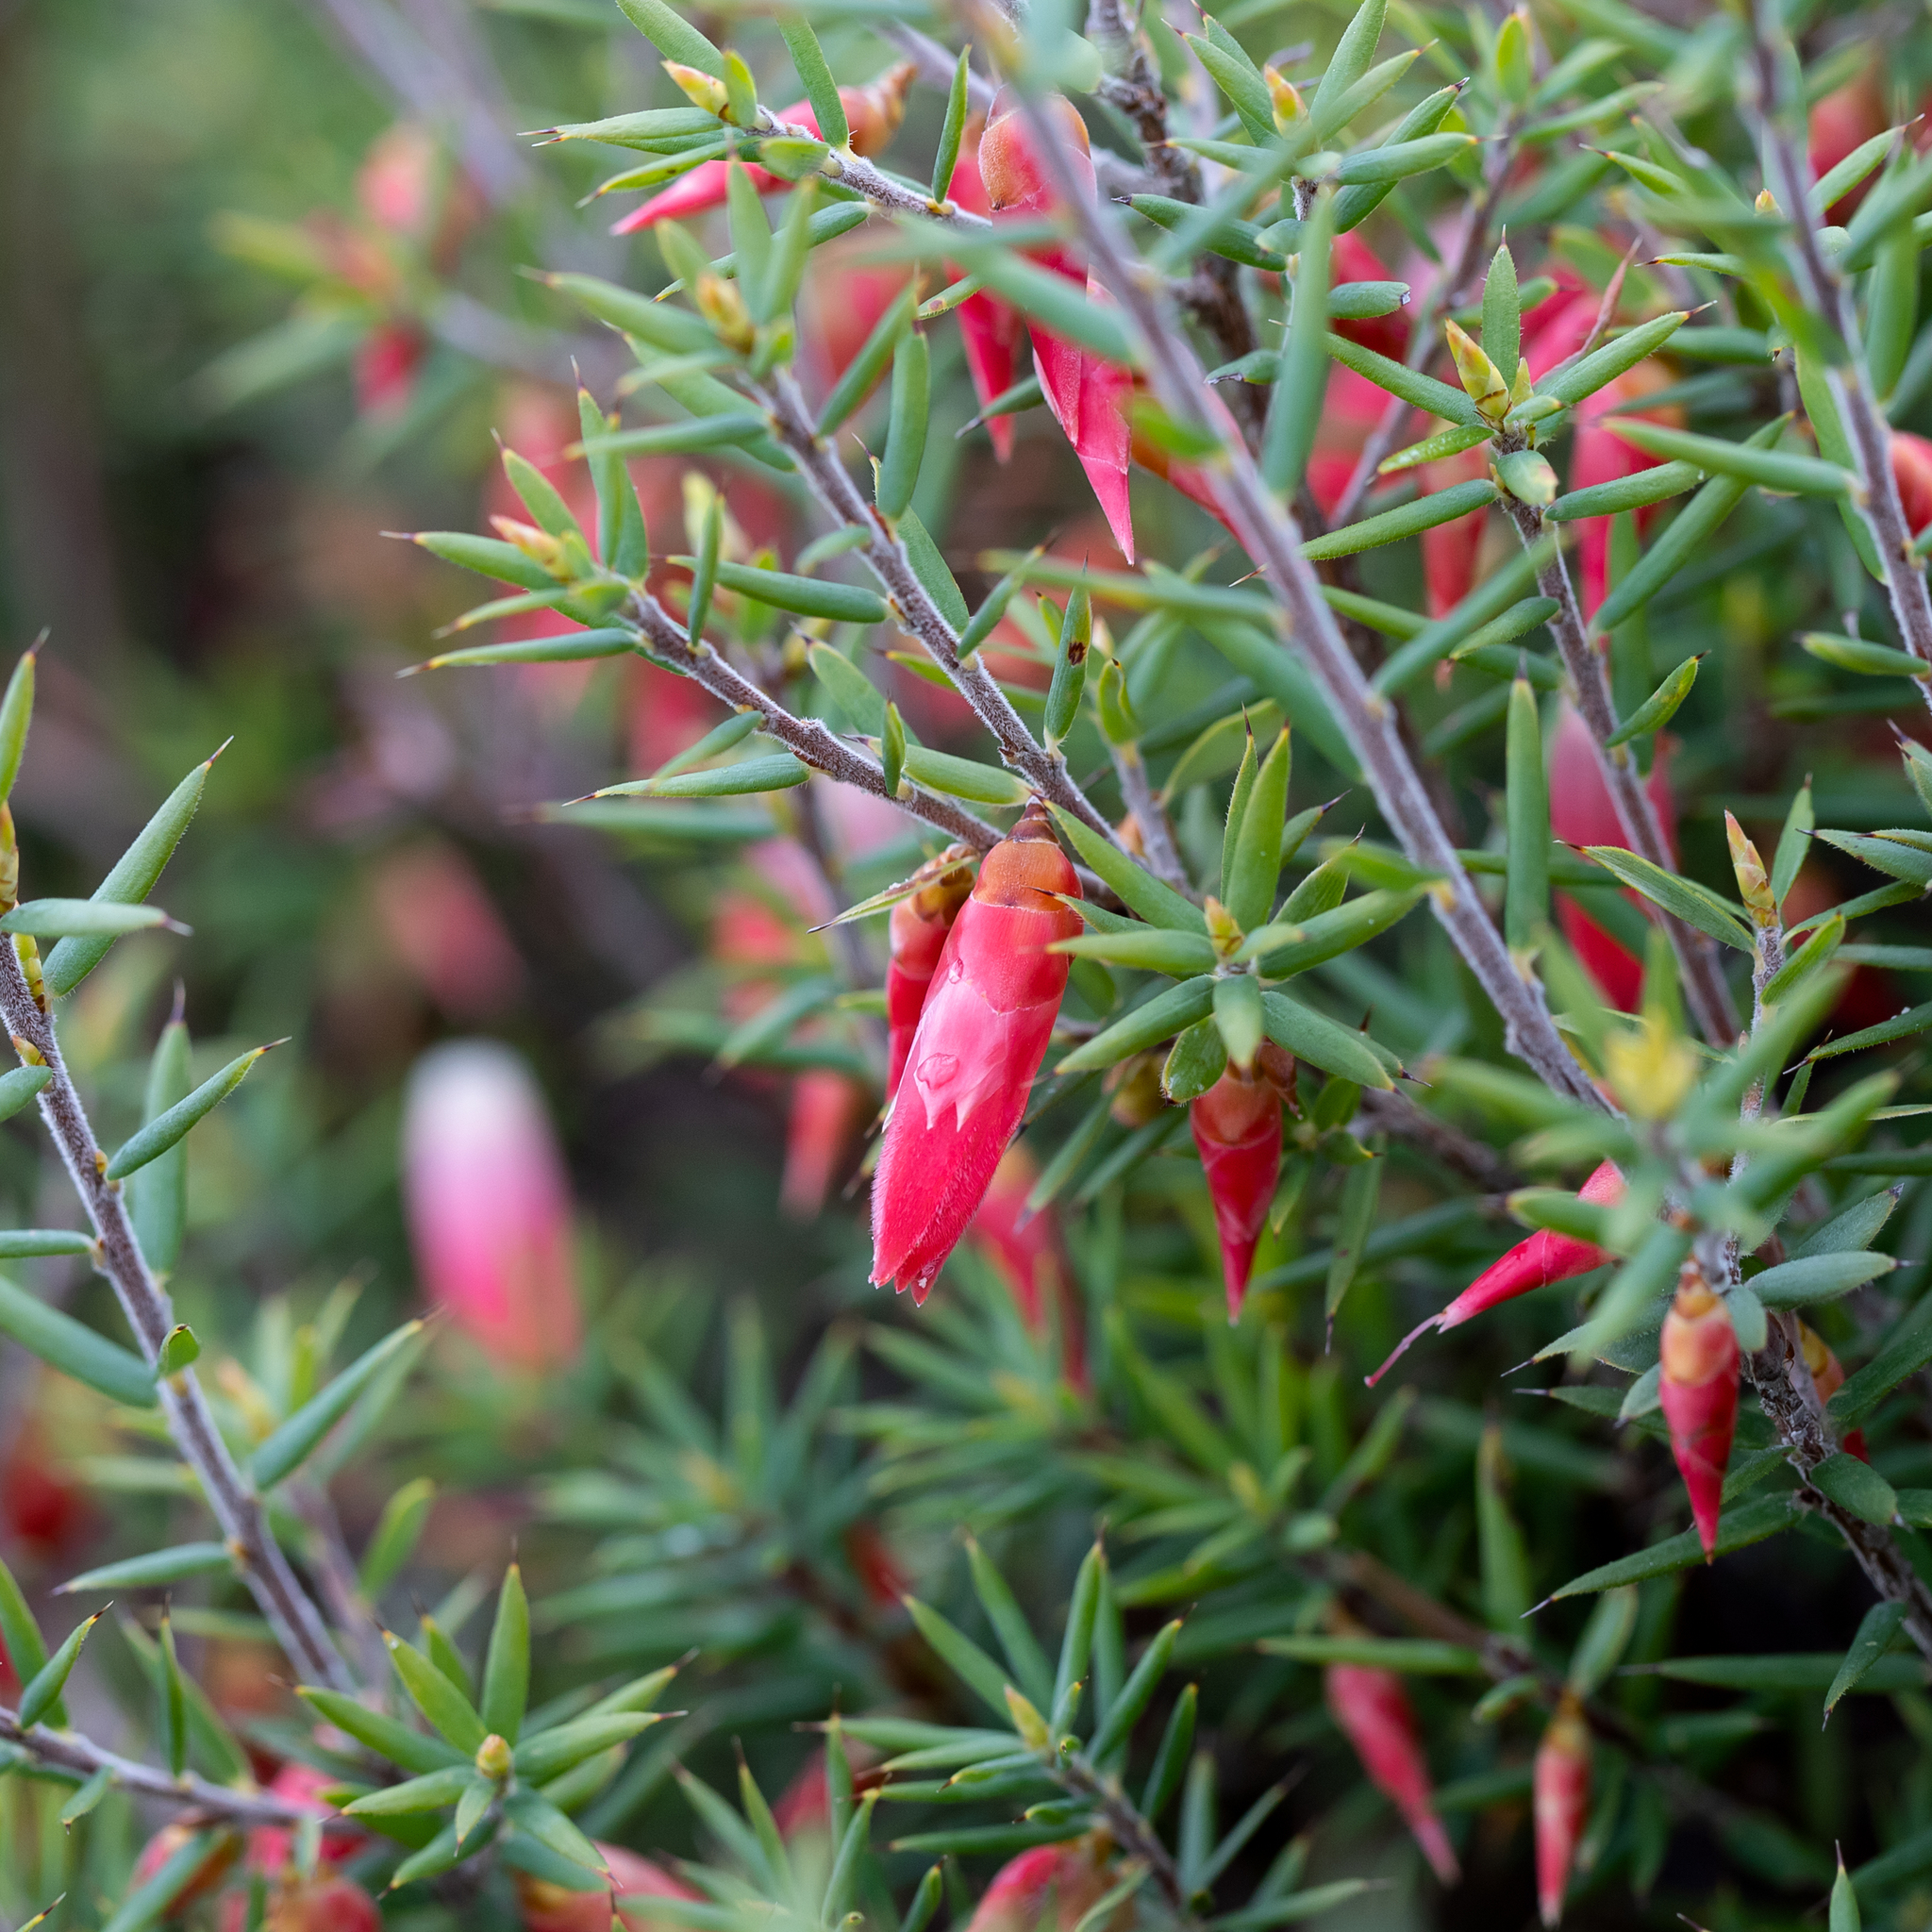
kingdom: Plantae
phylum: Tracheophyta
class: Magnoliopsida
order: Ericales
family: Ericaceae
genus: Stenanthera
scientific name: Stenanthera conostephioides
